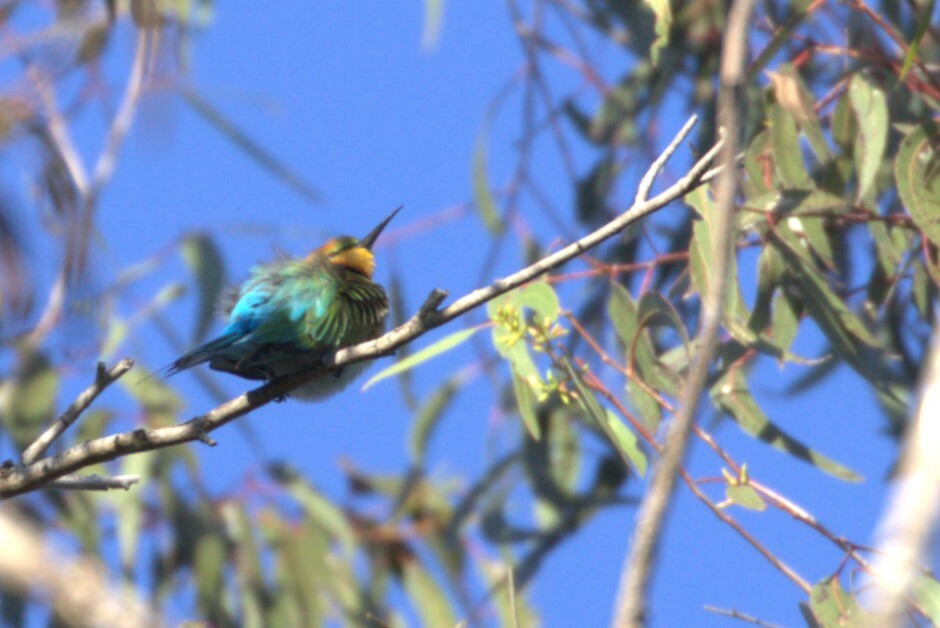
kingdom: Animalia
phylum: Chordata
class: Aves
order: Coraciiformes
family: Meropidae
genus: Merops
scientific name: Merops ornatus
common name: Rainbow bee-eater
